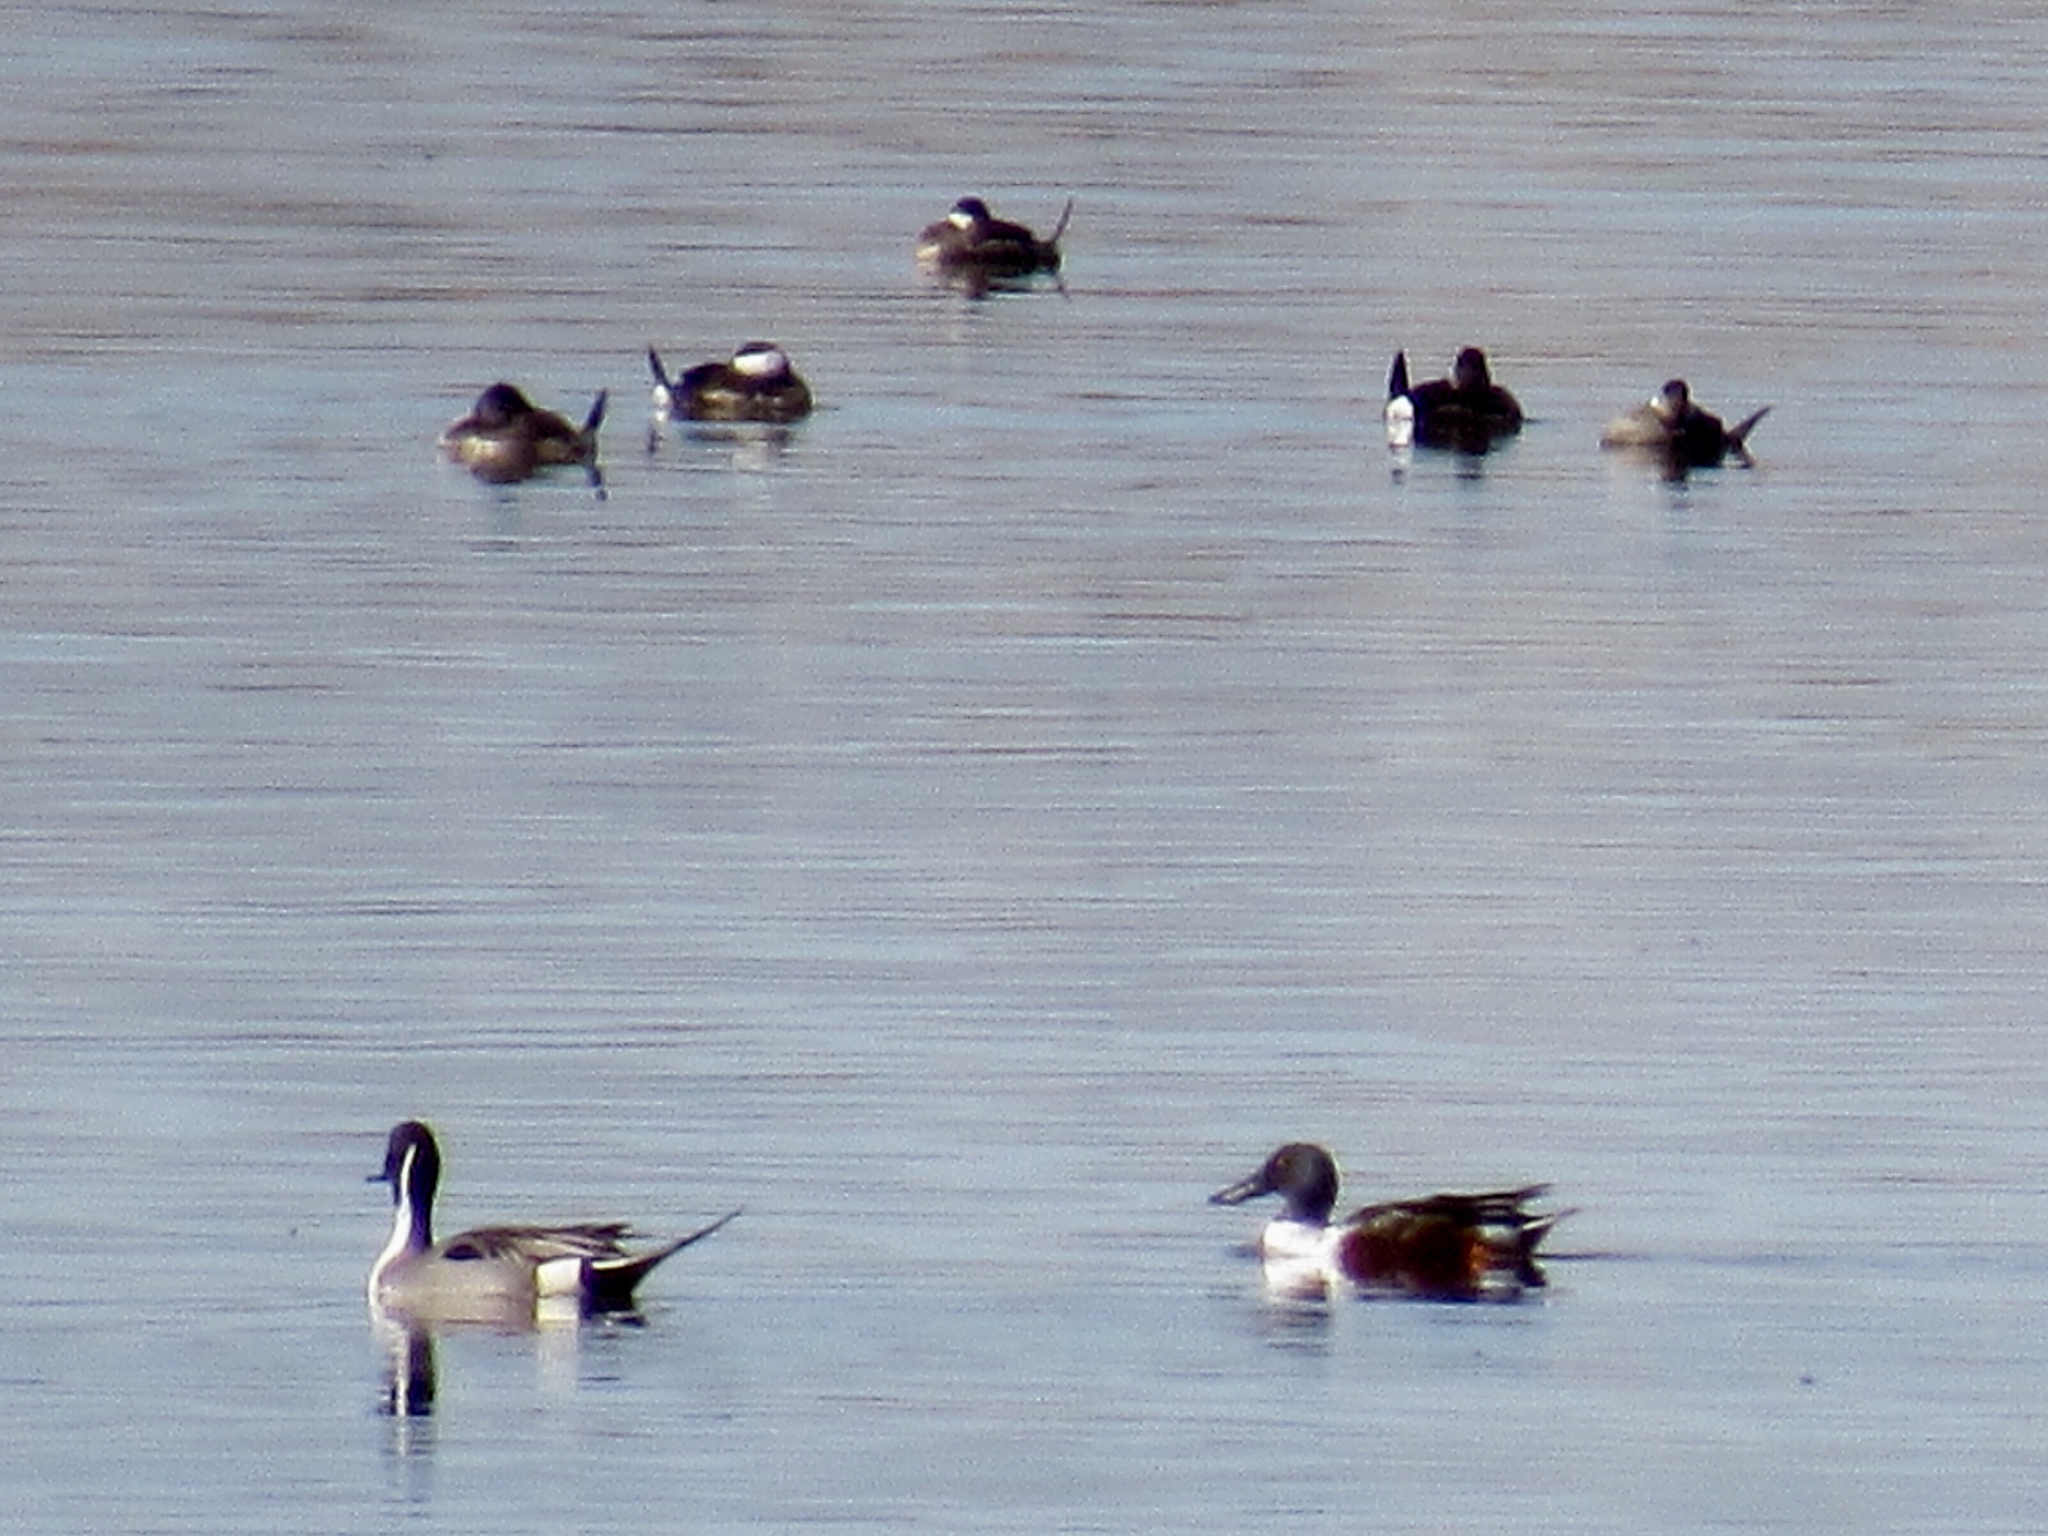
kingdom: Animalia
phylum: Chordata
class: Aves
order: Anseriformes
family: Anatidae
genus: Spatula
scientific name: Spatula clypeata
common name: Northern shoveler
